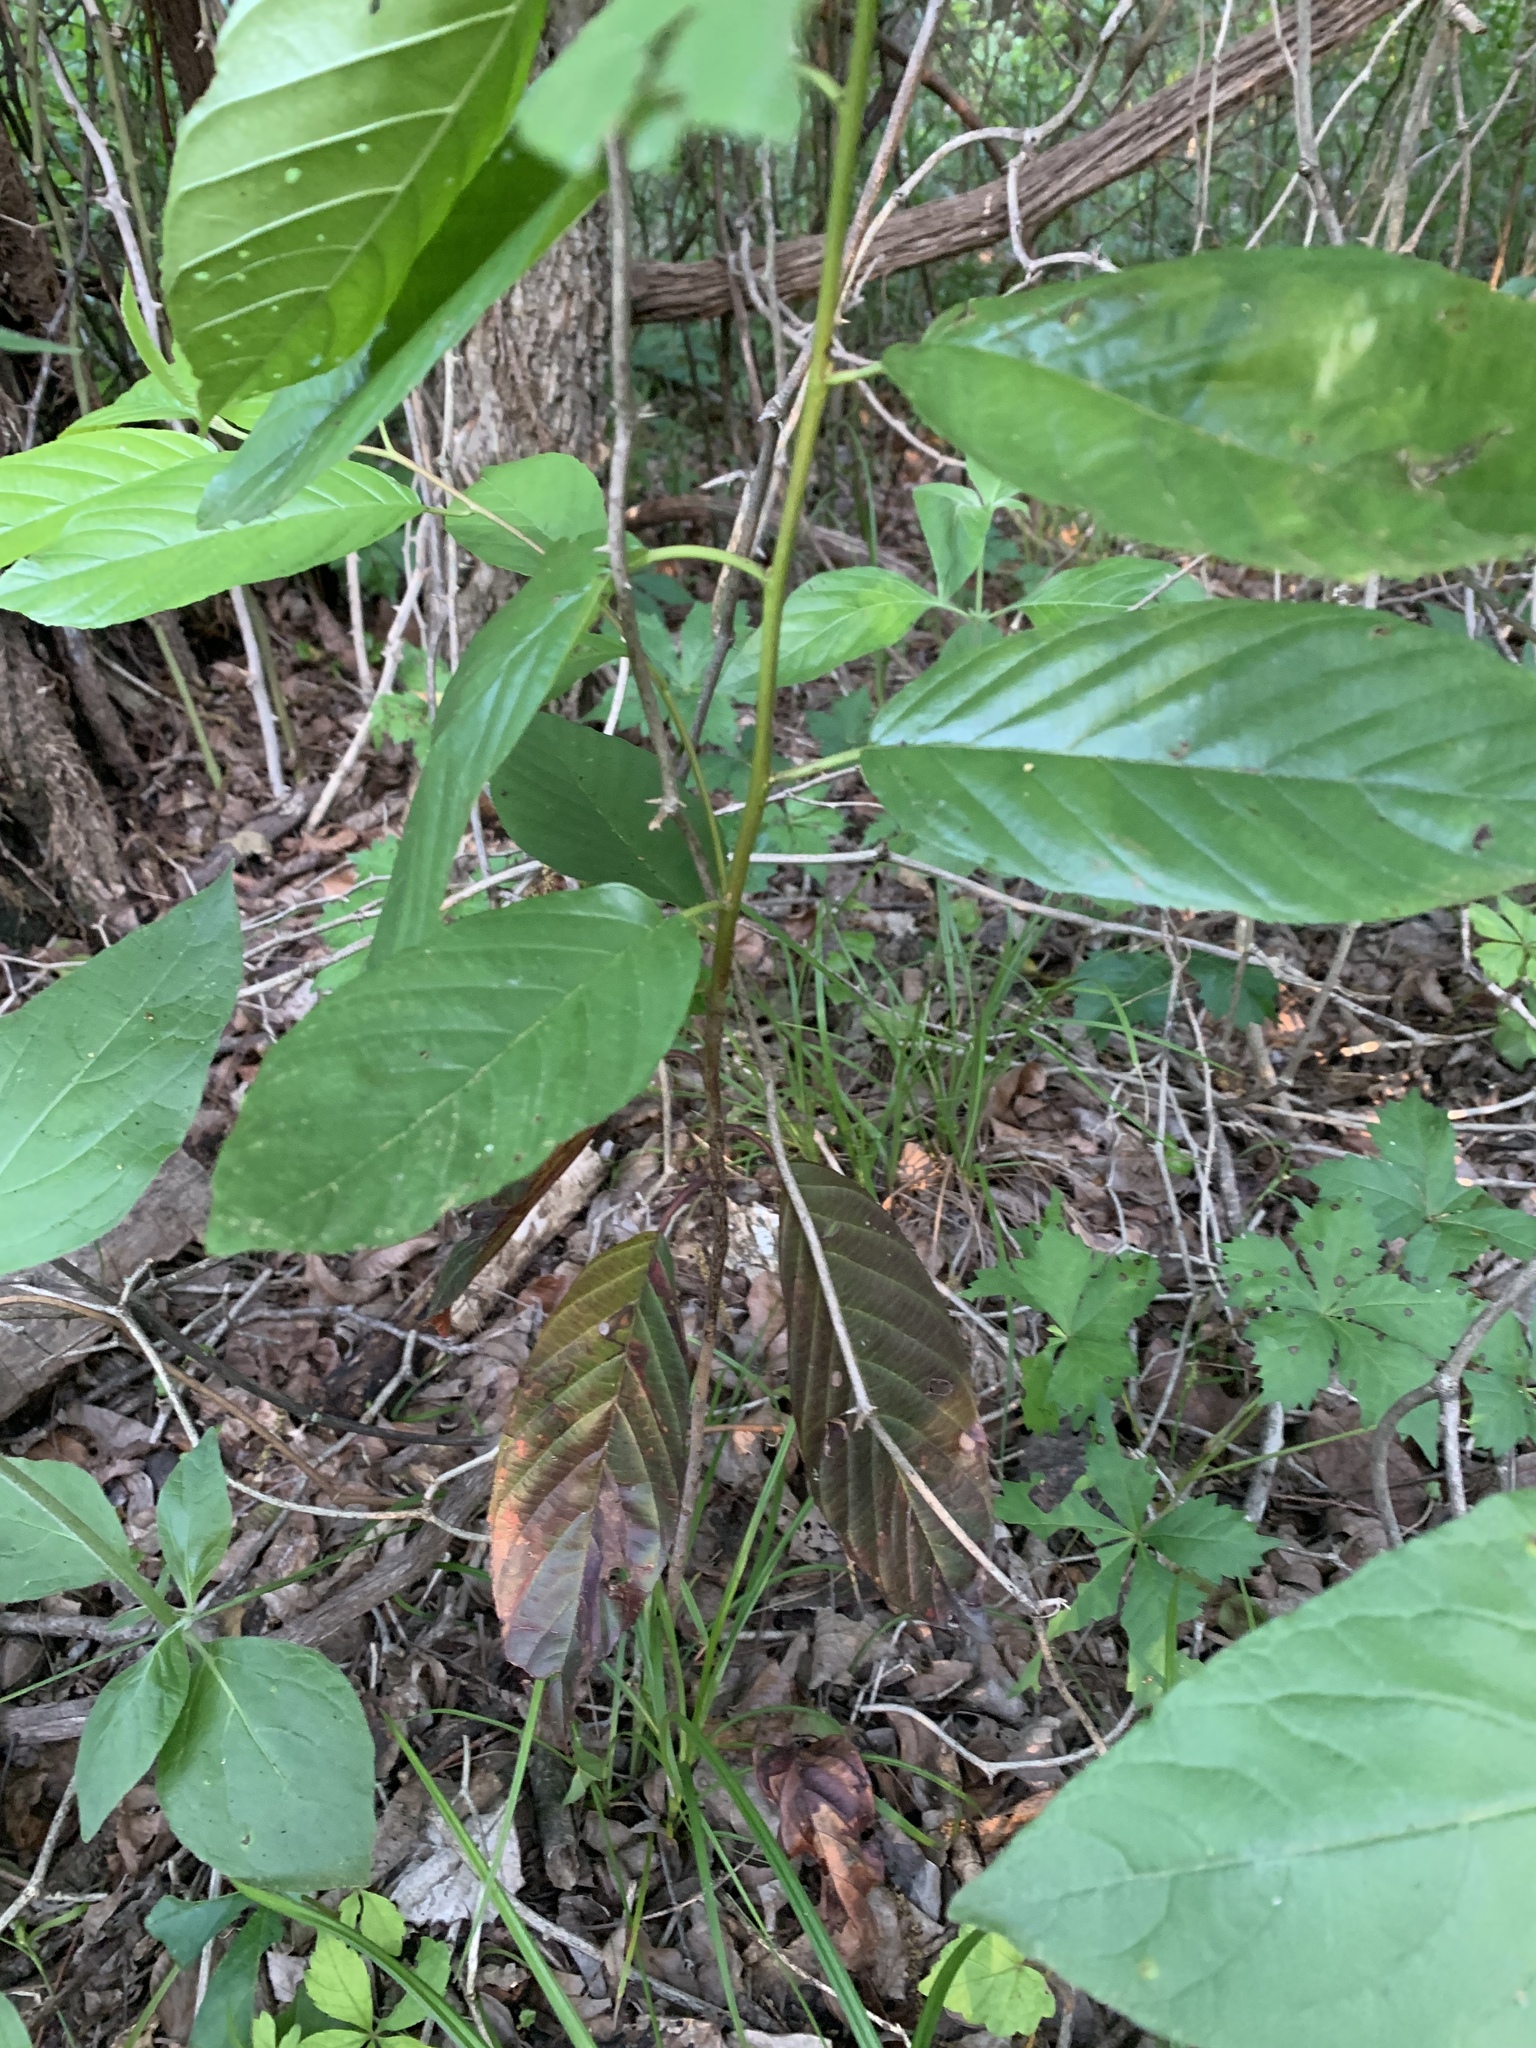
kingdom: Plantae
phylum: Tracheophyta
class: Magnoliopsida
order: Rosales
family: Rhamnaceae
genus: Frangula
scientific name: Frangula caroliniana
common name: Carolina buckthorn
